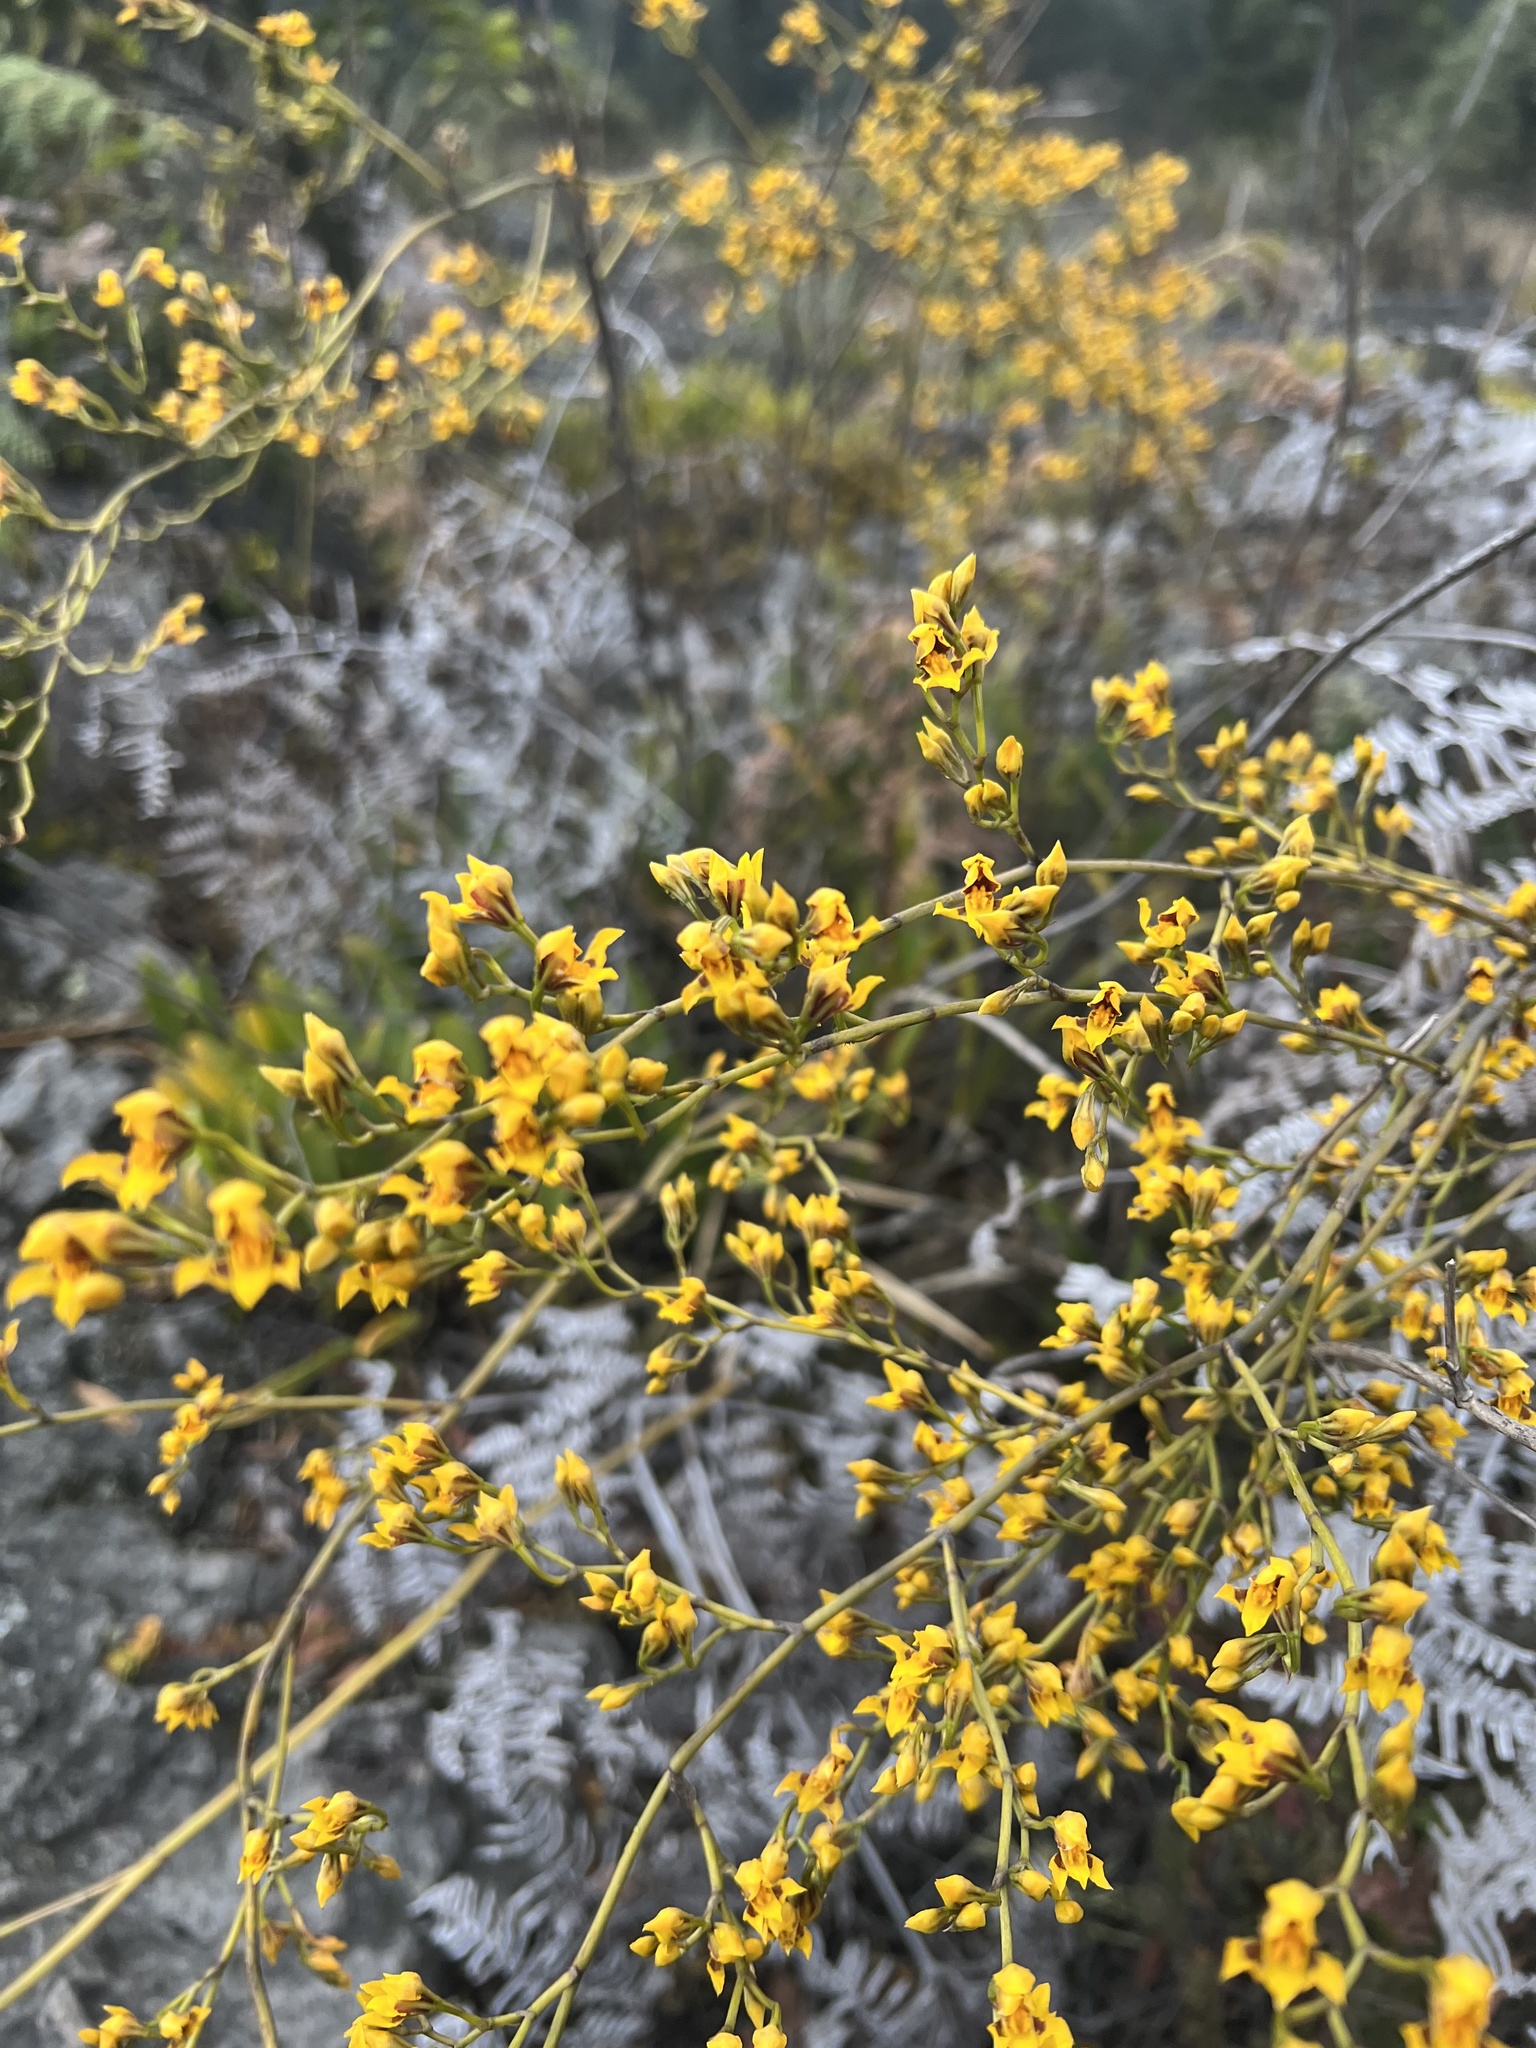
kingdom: Plantae
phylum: Tracheophyta
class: Liliopsida
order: Asparagales
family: Orchidaceae
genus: Cyrtochilum
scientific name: Cyrtochilum densiflorum
